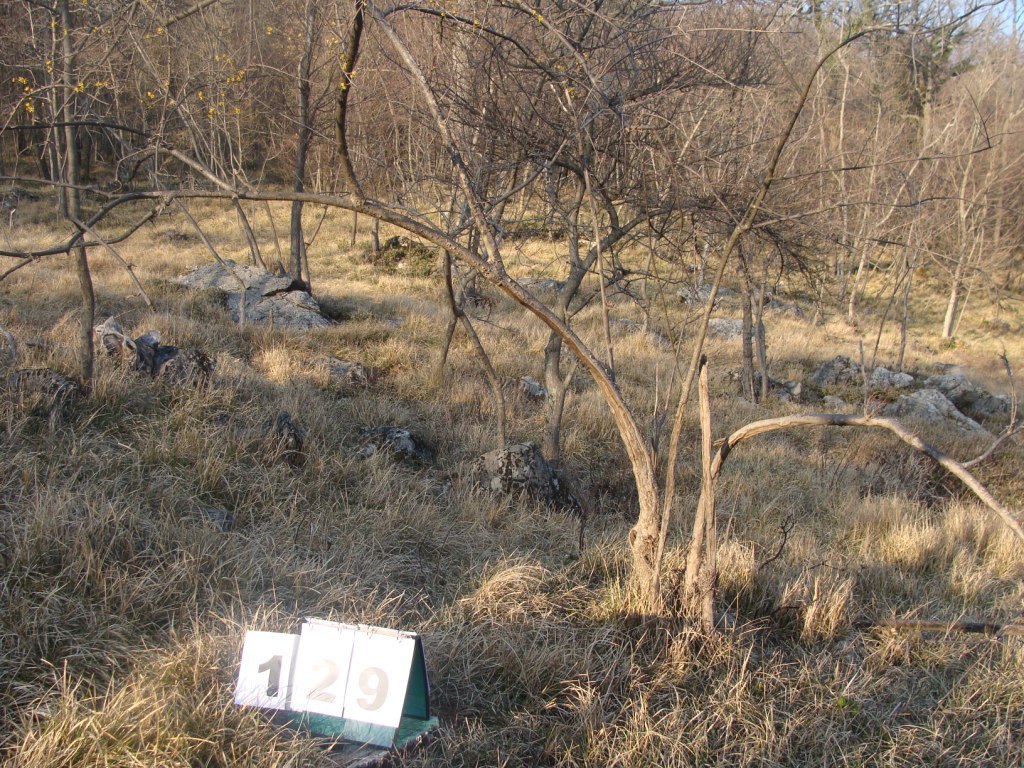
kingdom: Plantae
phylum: Tracheophyta
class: Magnoliopsida
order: Cornales
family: Cornaceae
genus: Cornus
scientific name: Cornus mas
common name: Cornelian-cherry
